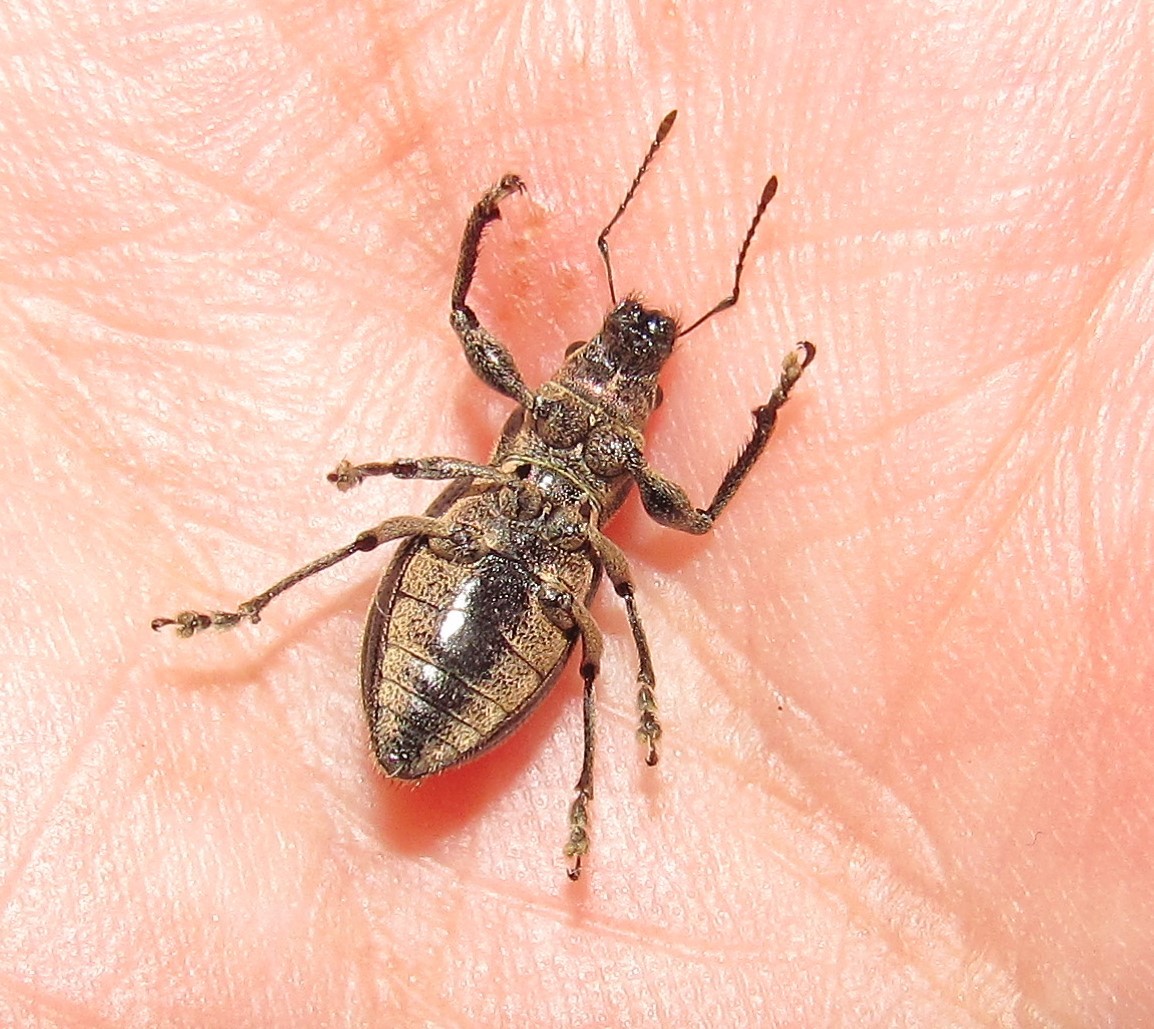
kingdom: Animalia
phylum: Arthropoda
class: Insecta
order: Coleoptera
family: Curculionidae
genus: Naupactus
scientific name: Naupactus tremolerasi
